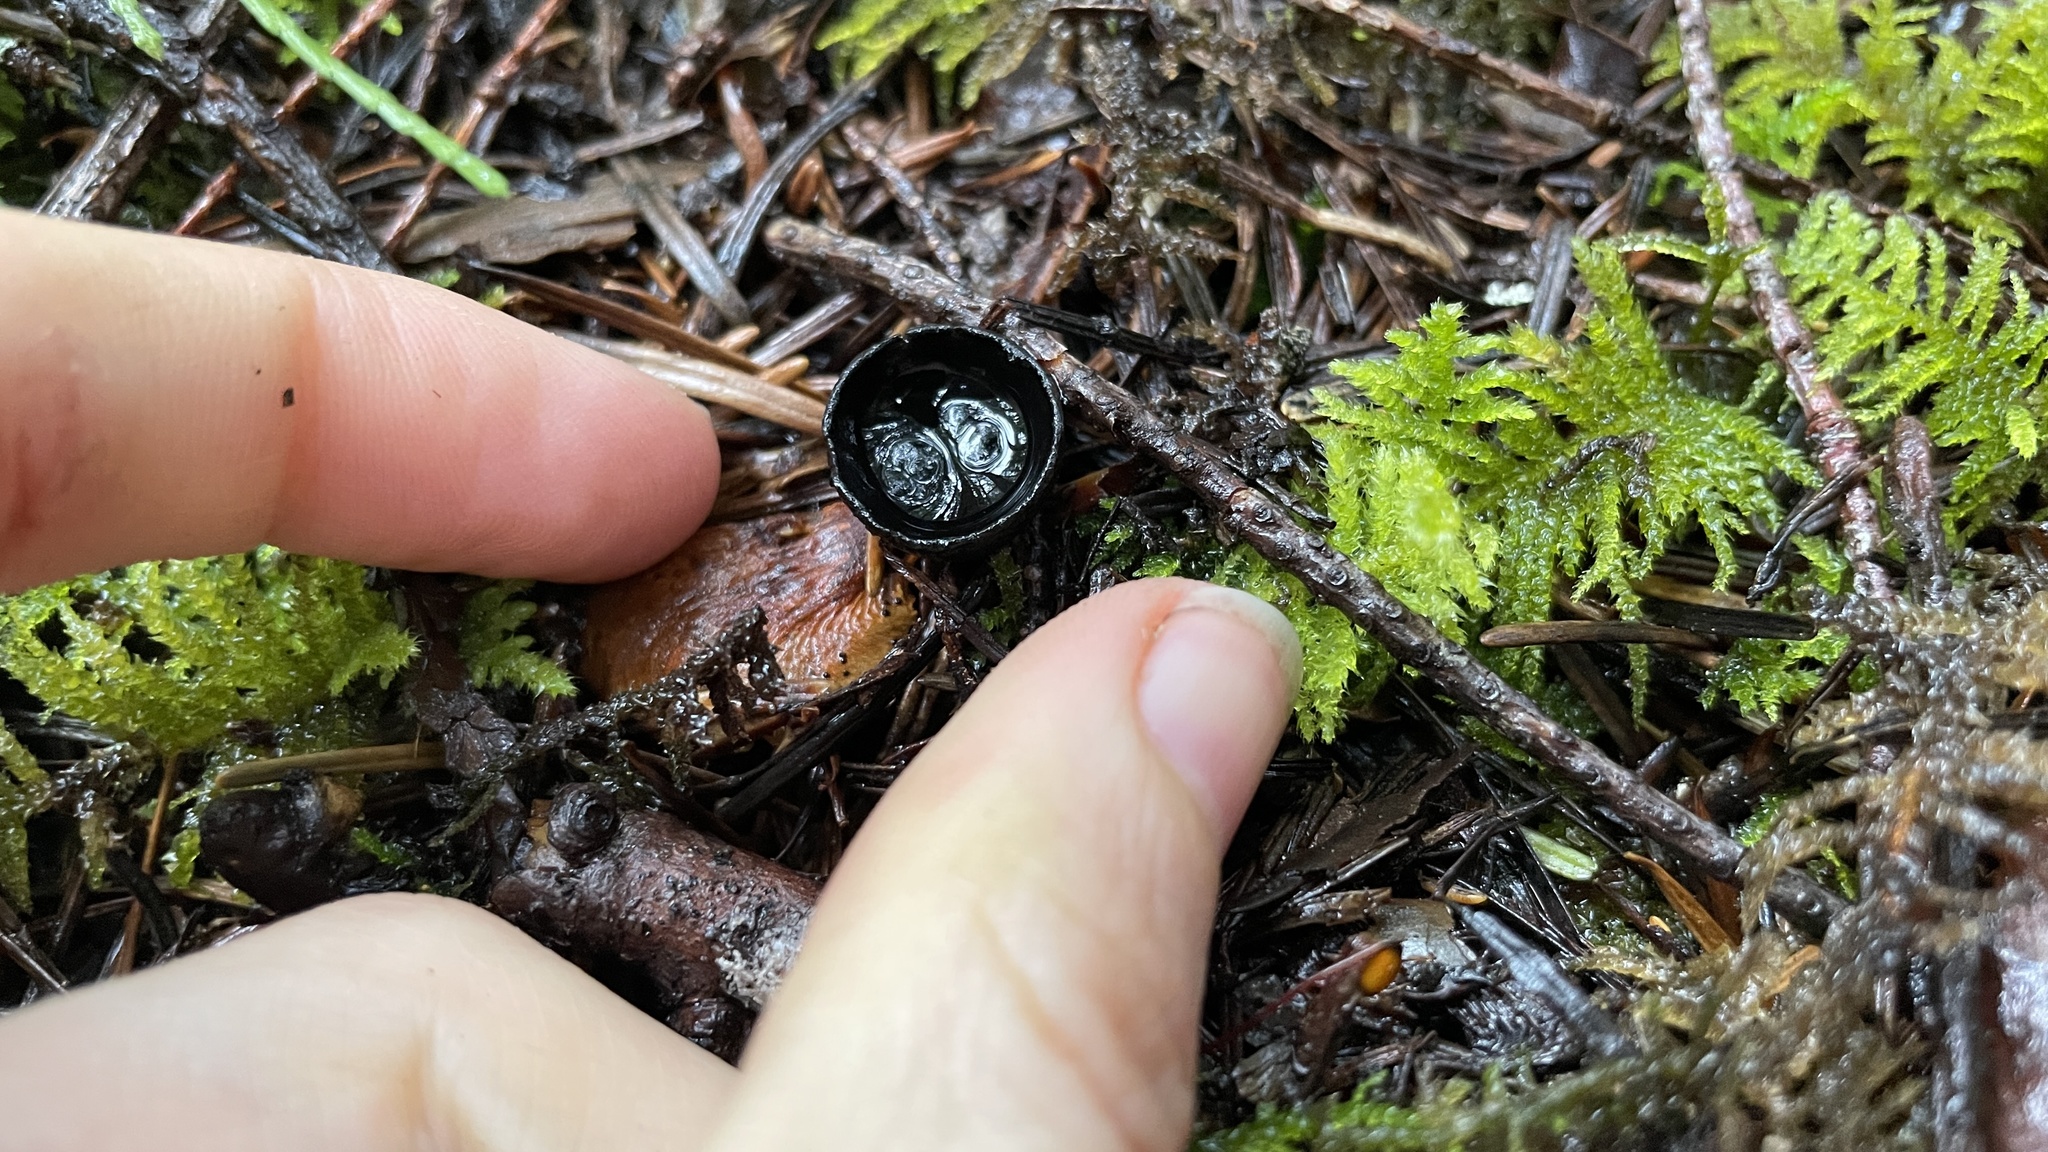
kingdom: Fungi
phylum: Ascomycota
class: Pezizomycetes
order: Pezizales
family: Sarcosomataceae
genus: Donadinia
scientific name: Donadinia nigrella
